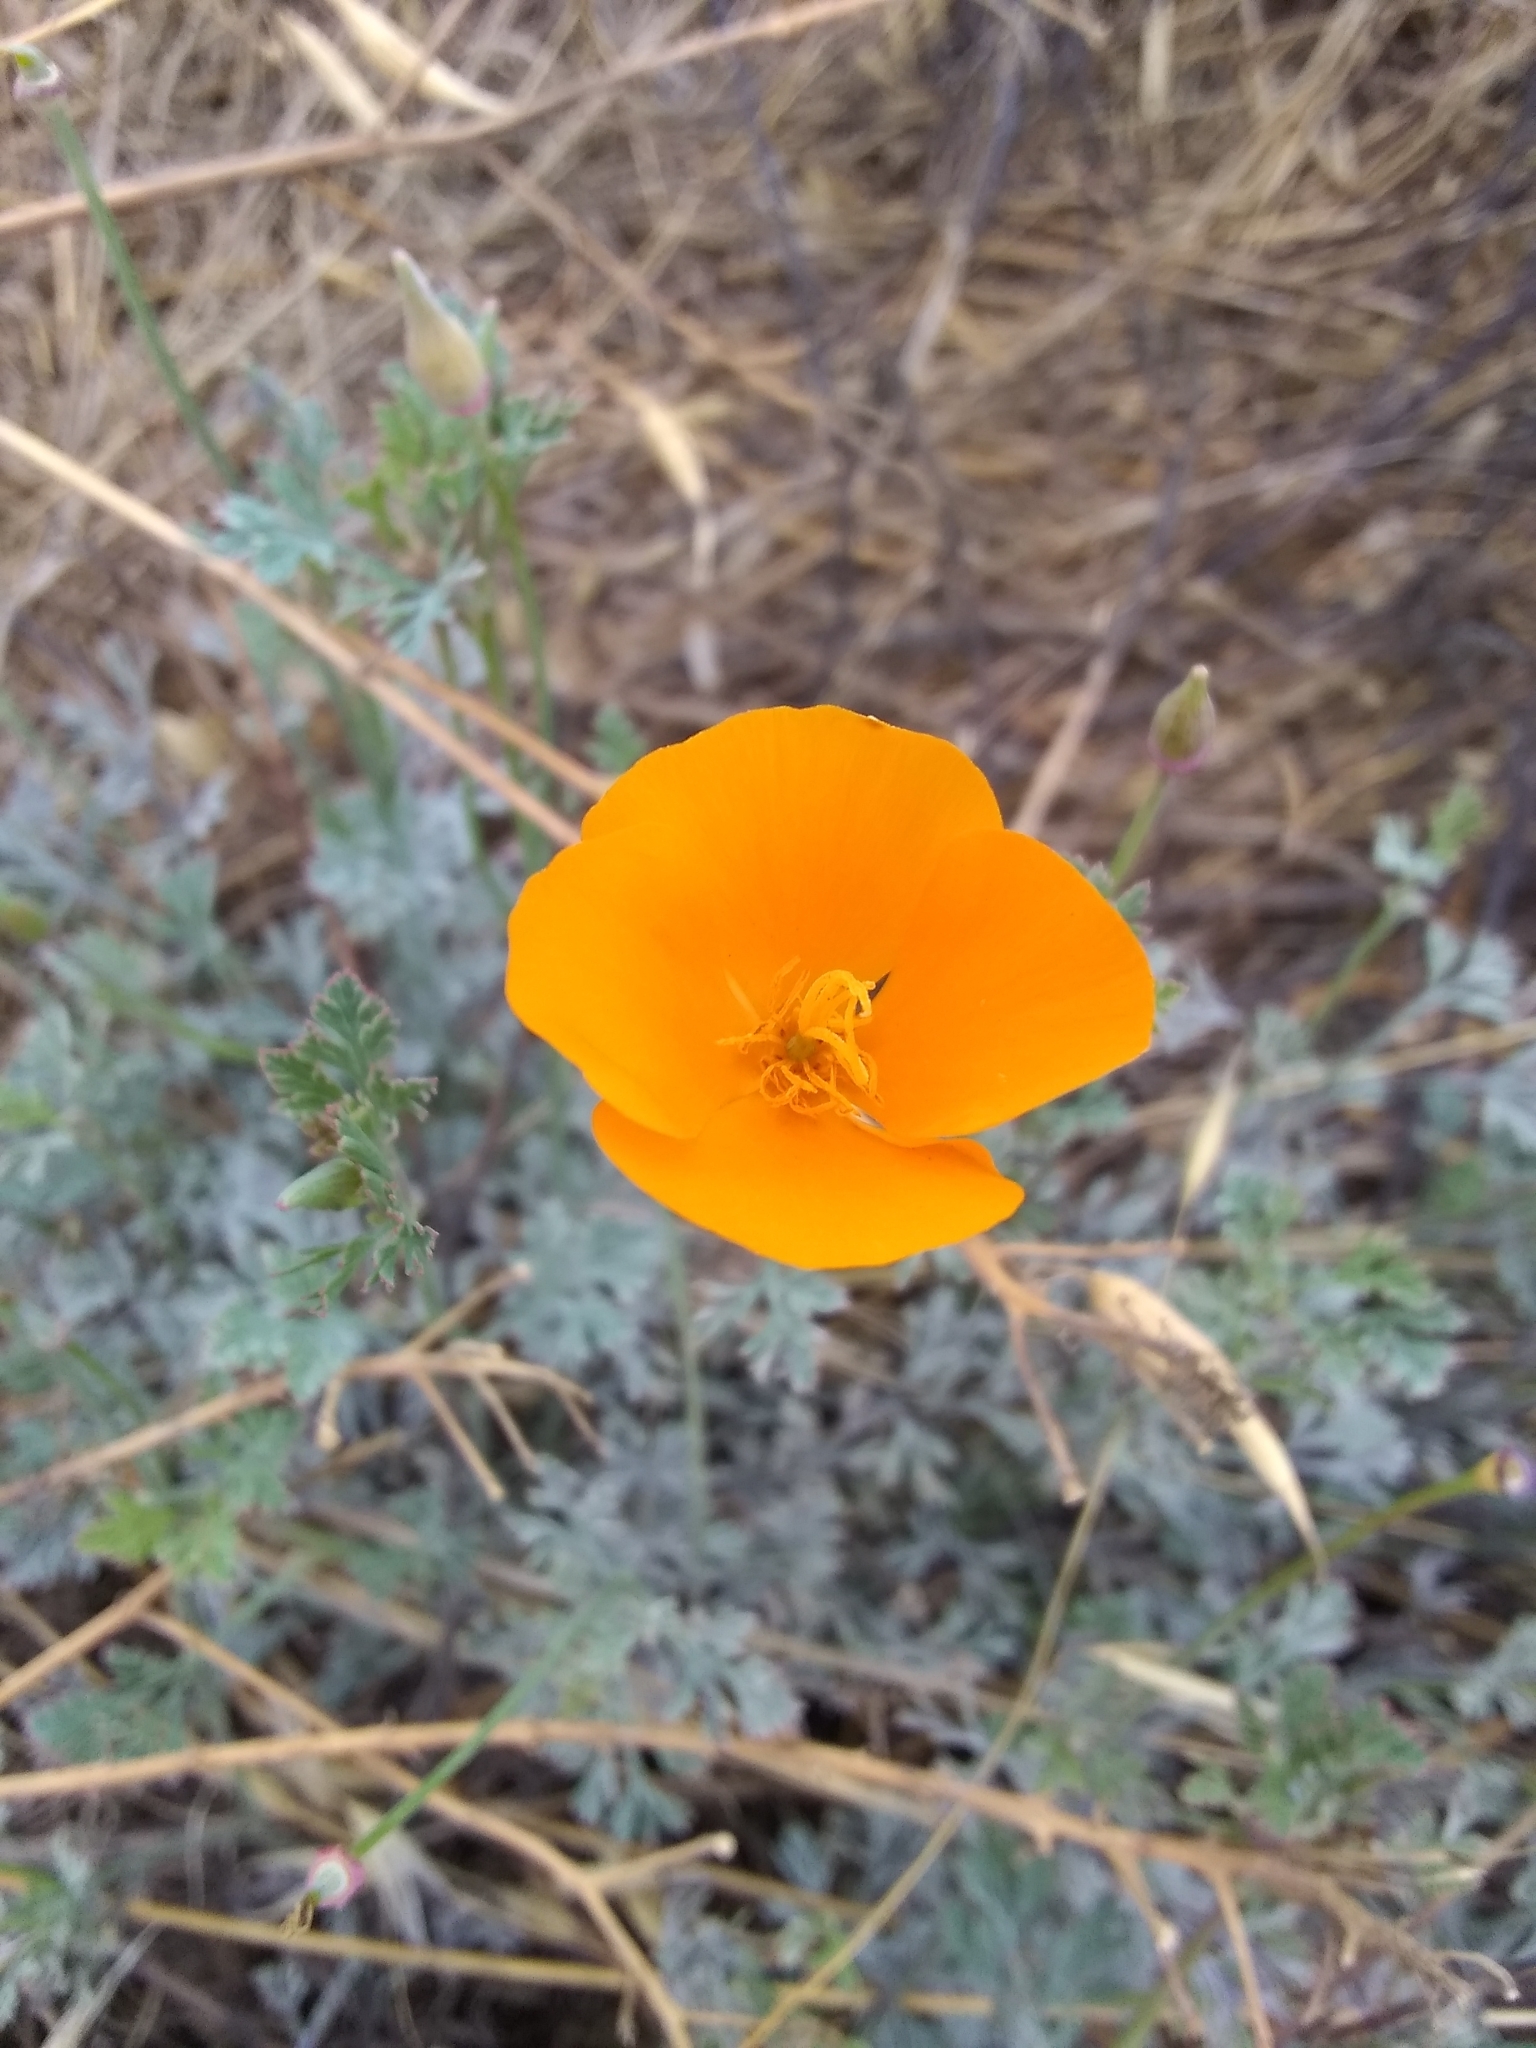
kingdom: Plantae
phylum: Tracheophyta
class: Magnoliopsida
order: Ranunculales
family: Papaveraceae
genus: Eschscholzia
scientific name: Eschscholzia californica
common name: California poppy
